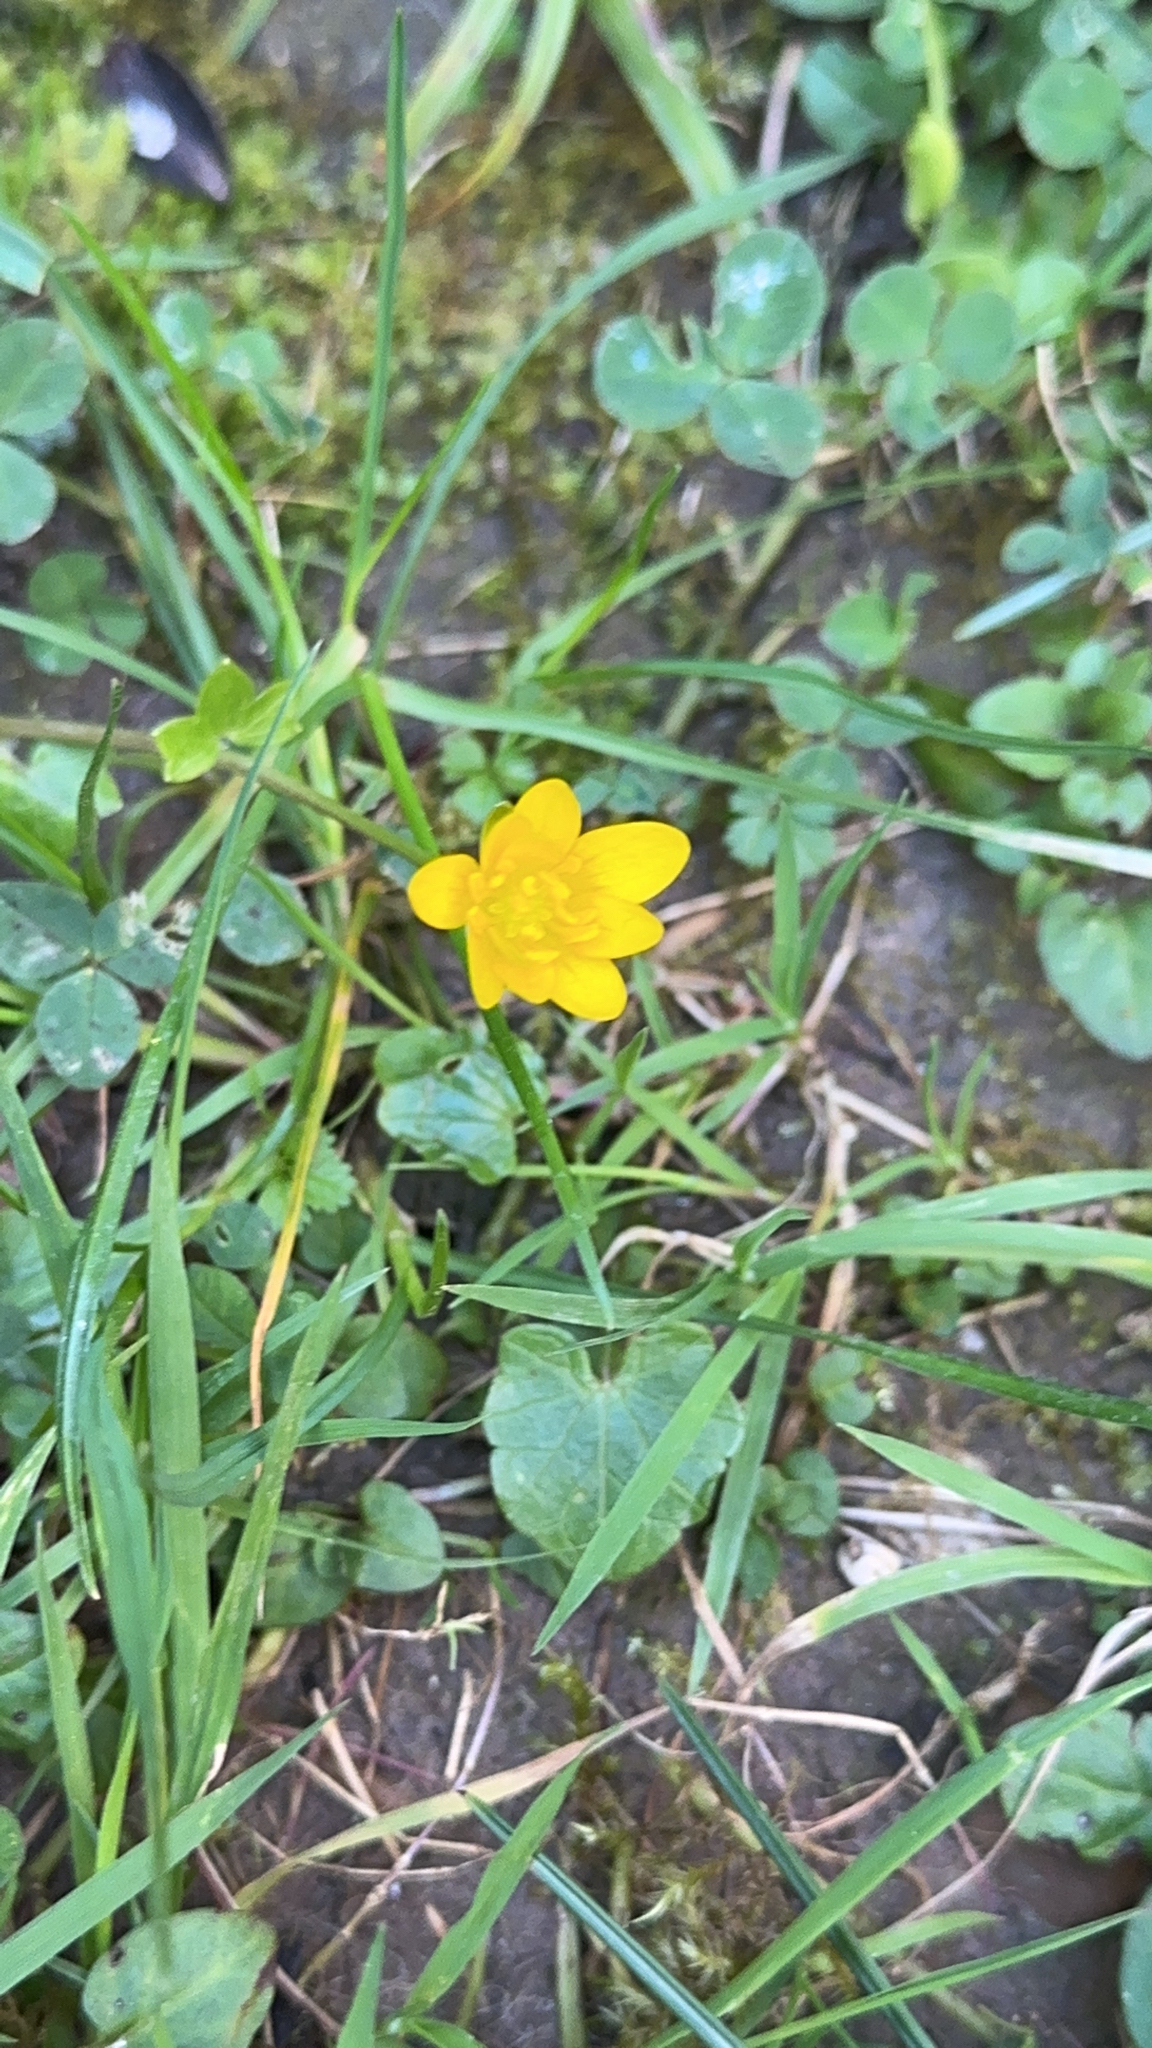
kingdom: Plantae
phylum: Tracheophyta
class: Magnoliopsida
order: Ranunculales
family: Ranunculaceae
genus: Ficaria
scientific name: Ficaria verna
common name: Lesser celandine
